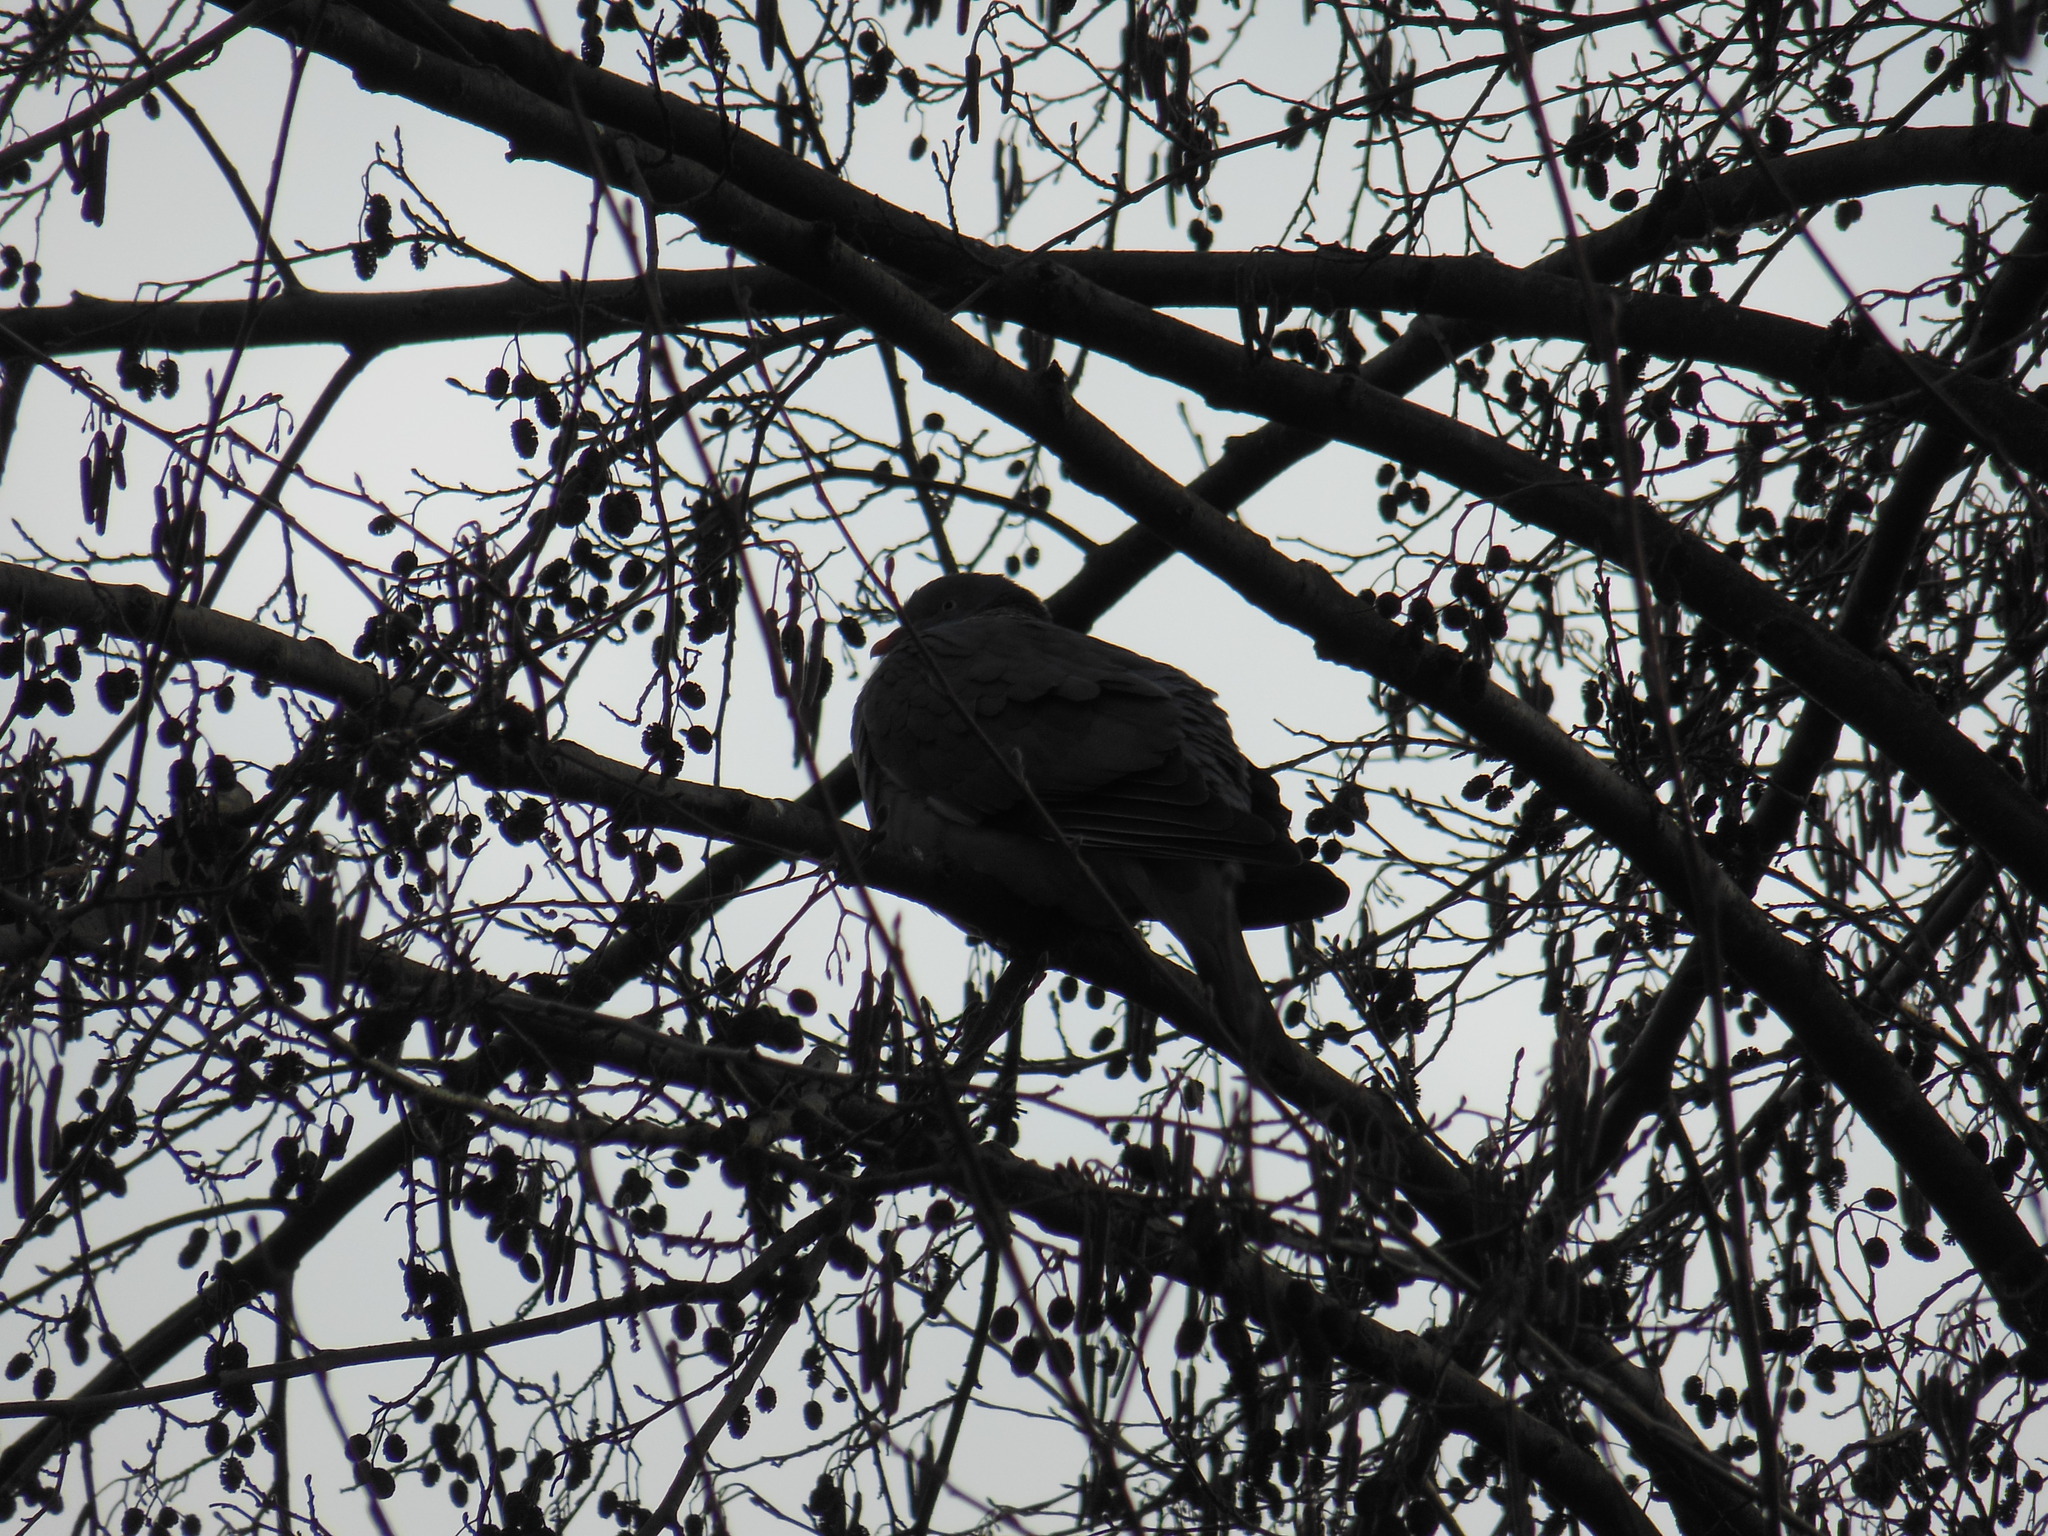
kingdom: Animalia
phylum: Chordata
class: Aves
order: Columbiformes
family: Columbidae
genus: Columba
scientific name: Columba palumbus
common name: Common wood pigeon
